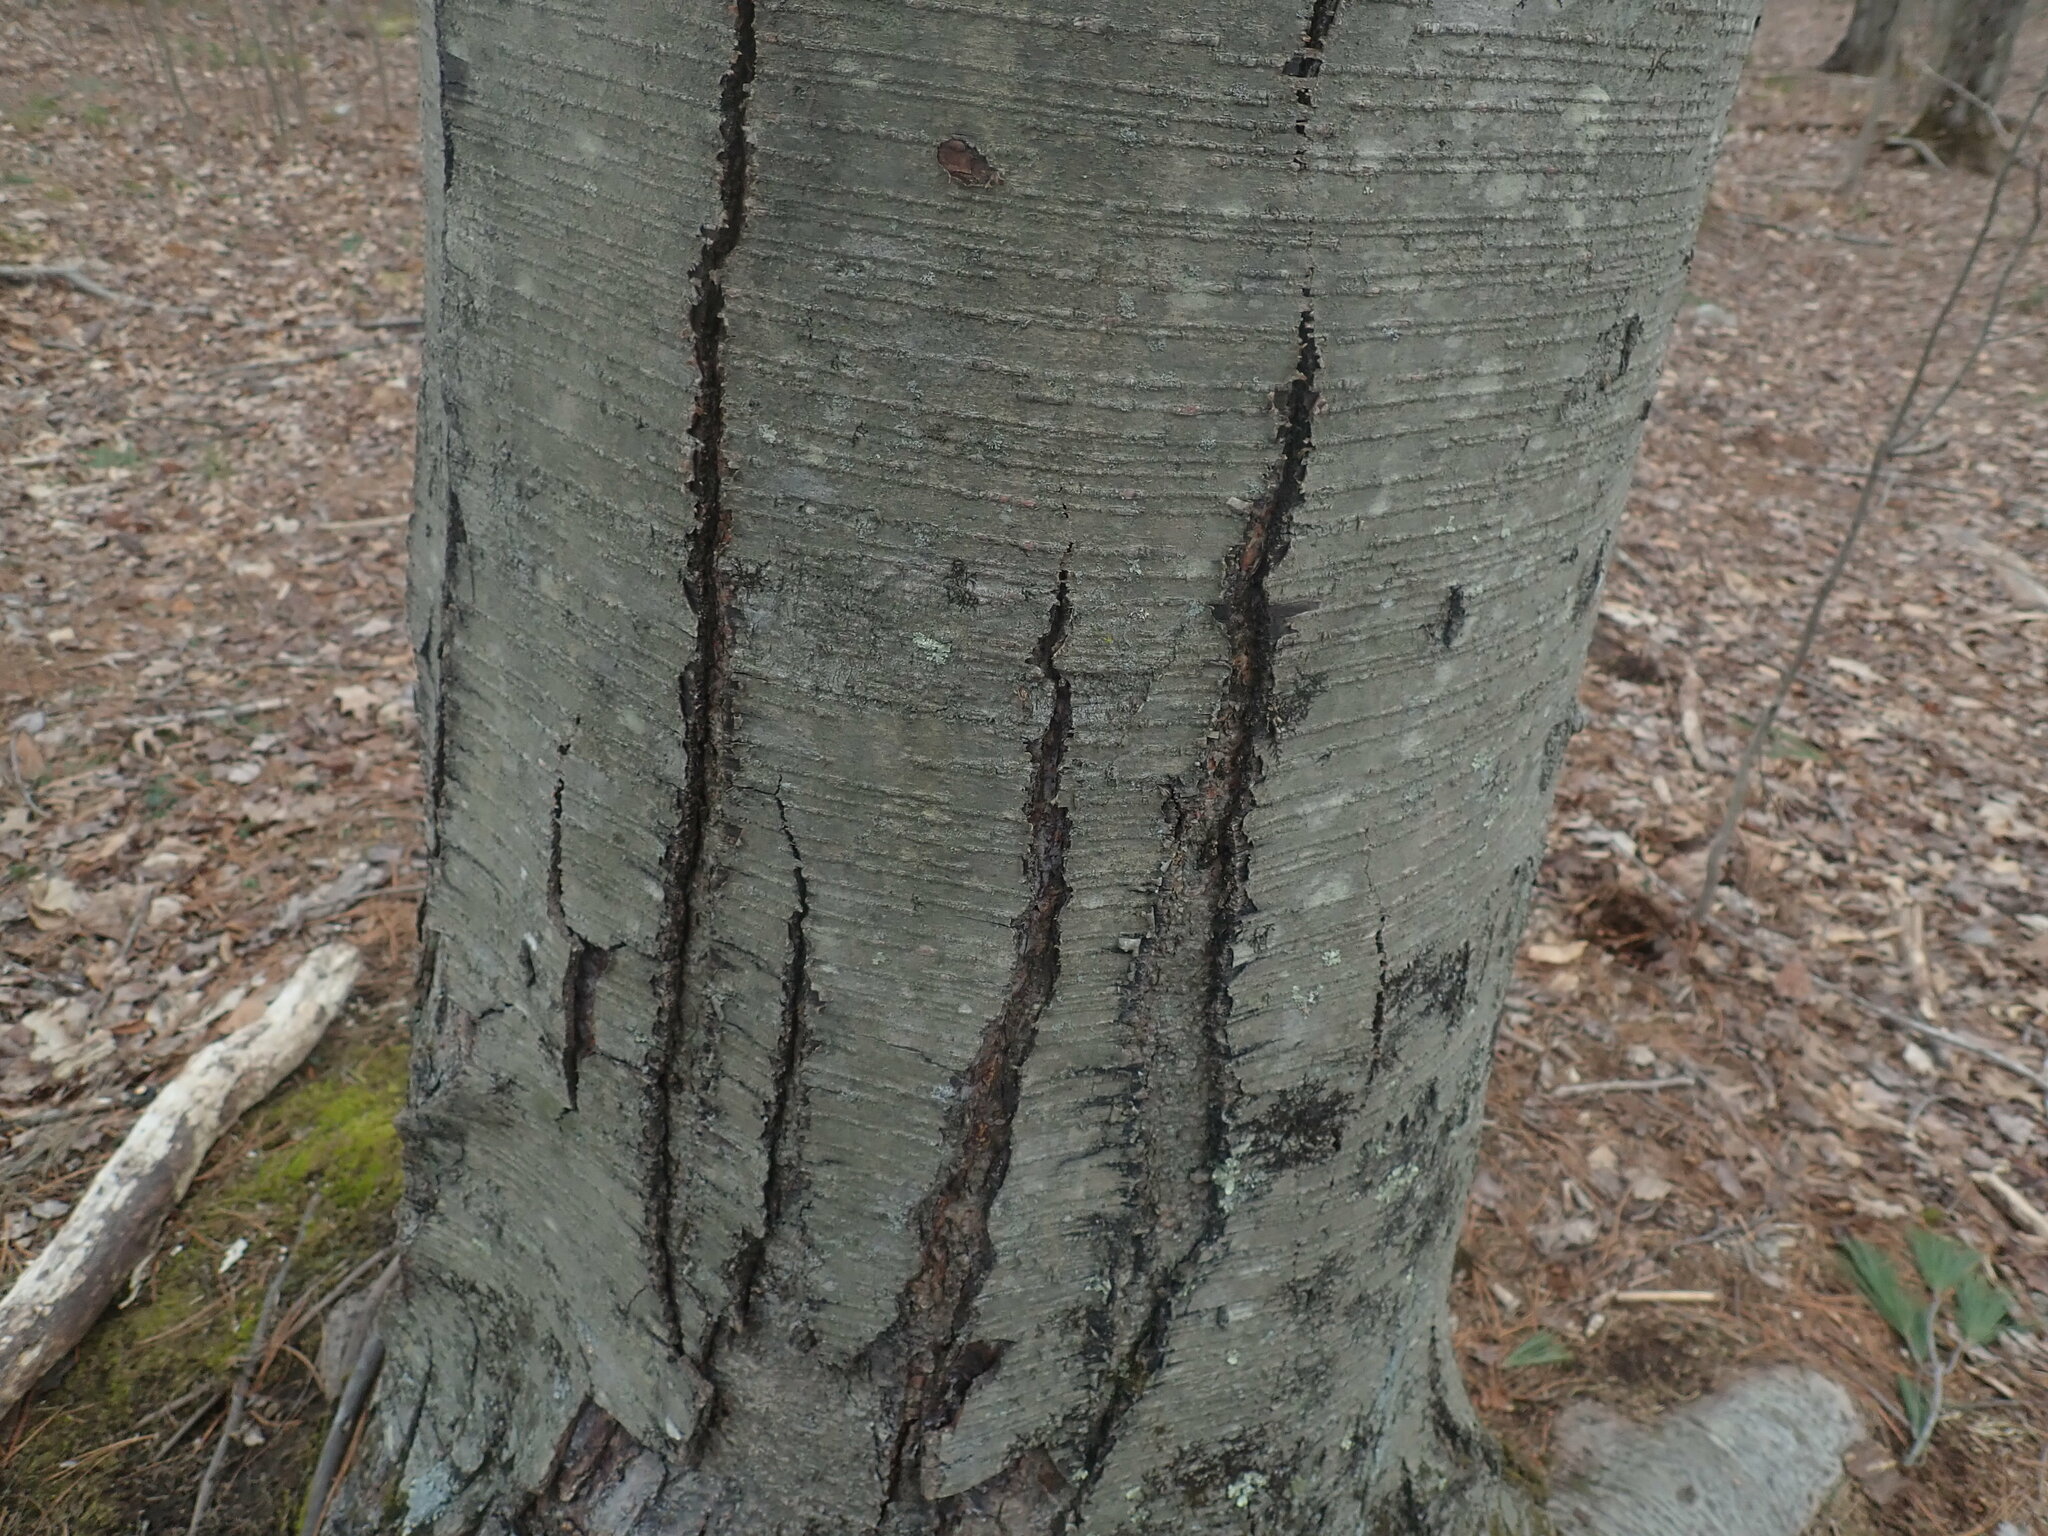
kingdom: Plantae
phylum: Tracheophyta
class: Magnoliopsida
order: Fagales
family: Betulaceae
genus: Betula
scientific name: Betula lenta
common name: Black birch
